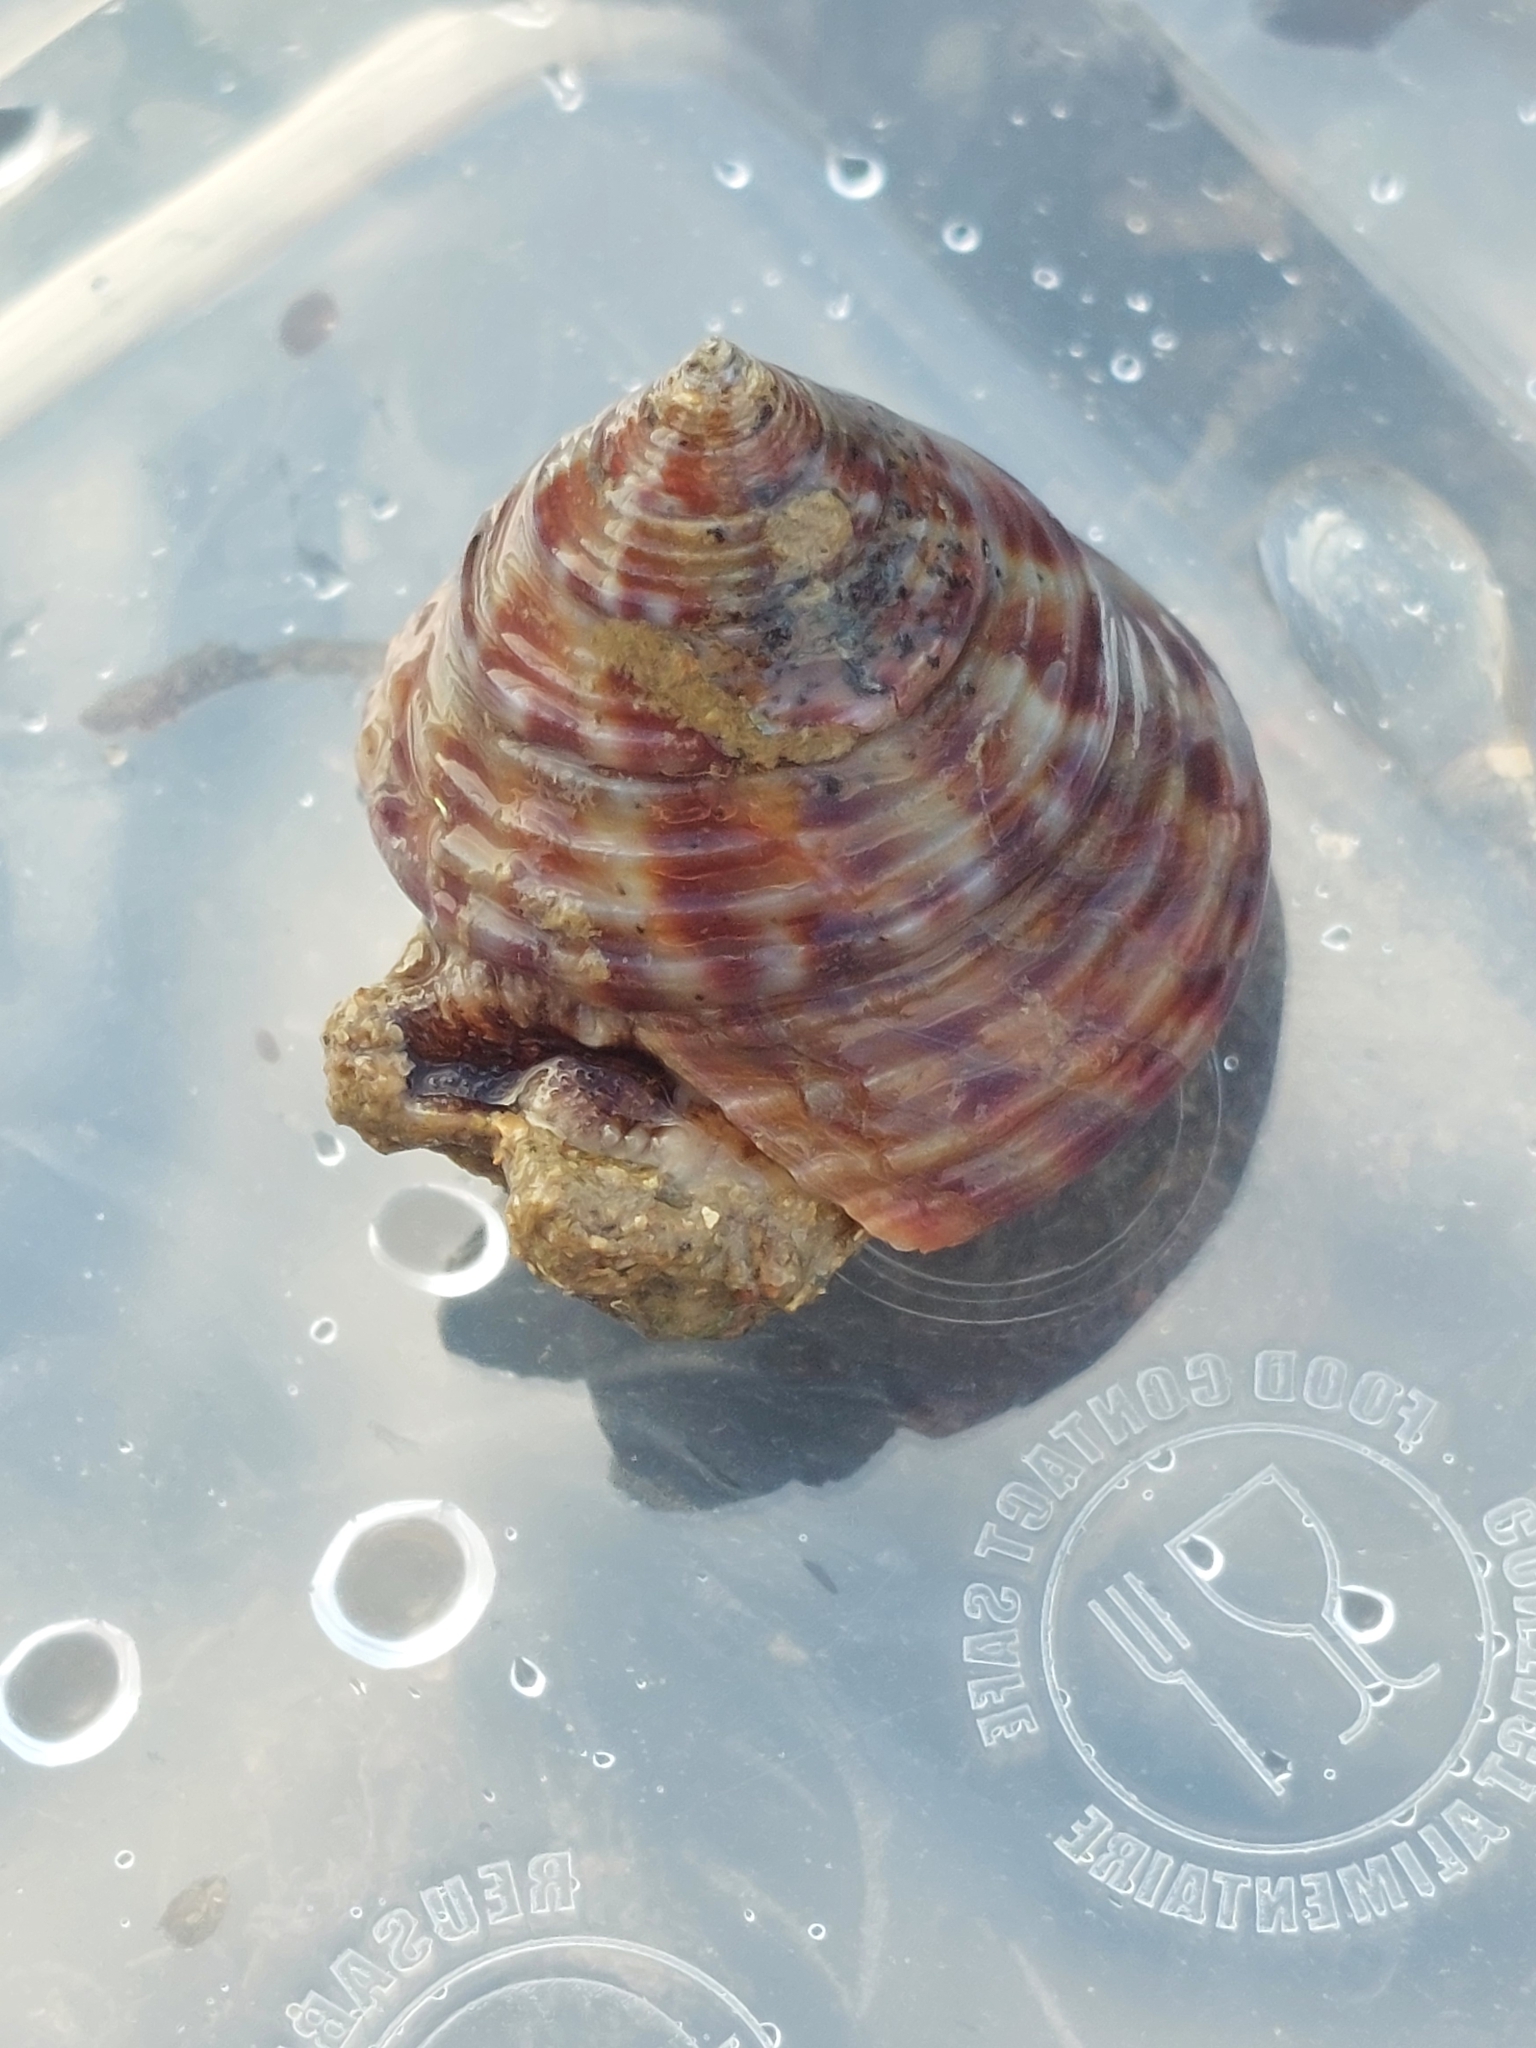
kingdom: Animalia
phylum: Mollusca
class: Gastropoda
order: Trochida
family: Calliostomatidae
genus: Calliostoma
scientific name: Calliostoma zizyphinum
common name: Painted top shell
